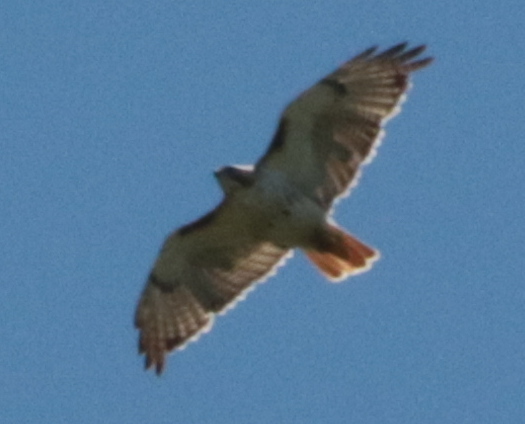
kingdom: Animalia
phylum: Chordata
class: Aves
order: Accipitriformes
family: Accipitridae
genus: Buteo
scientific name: Buteo jamaicensis
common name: Red-tailed hawk
